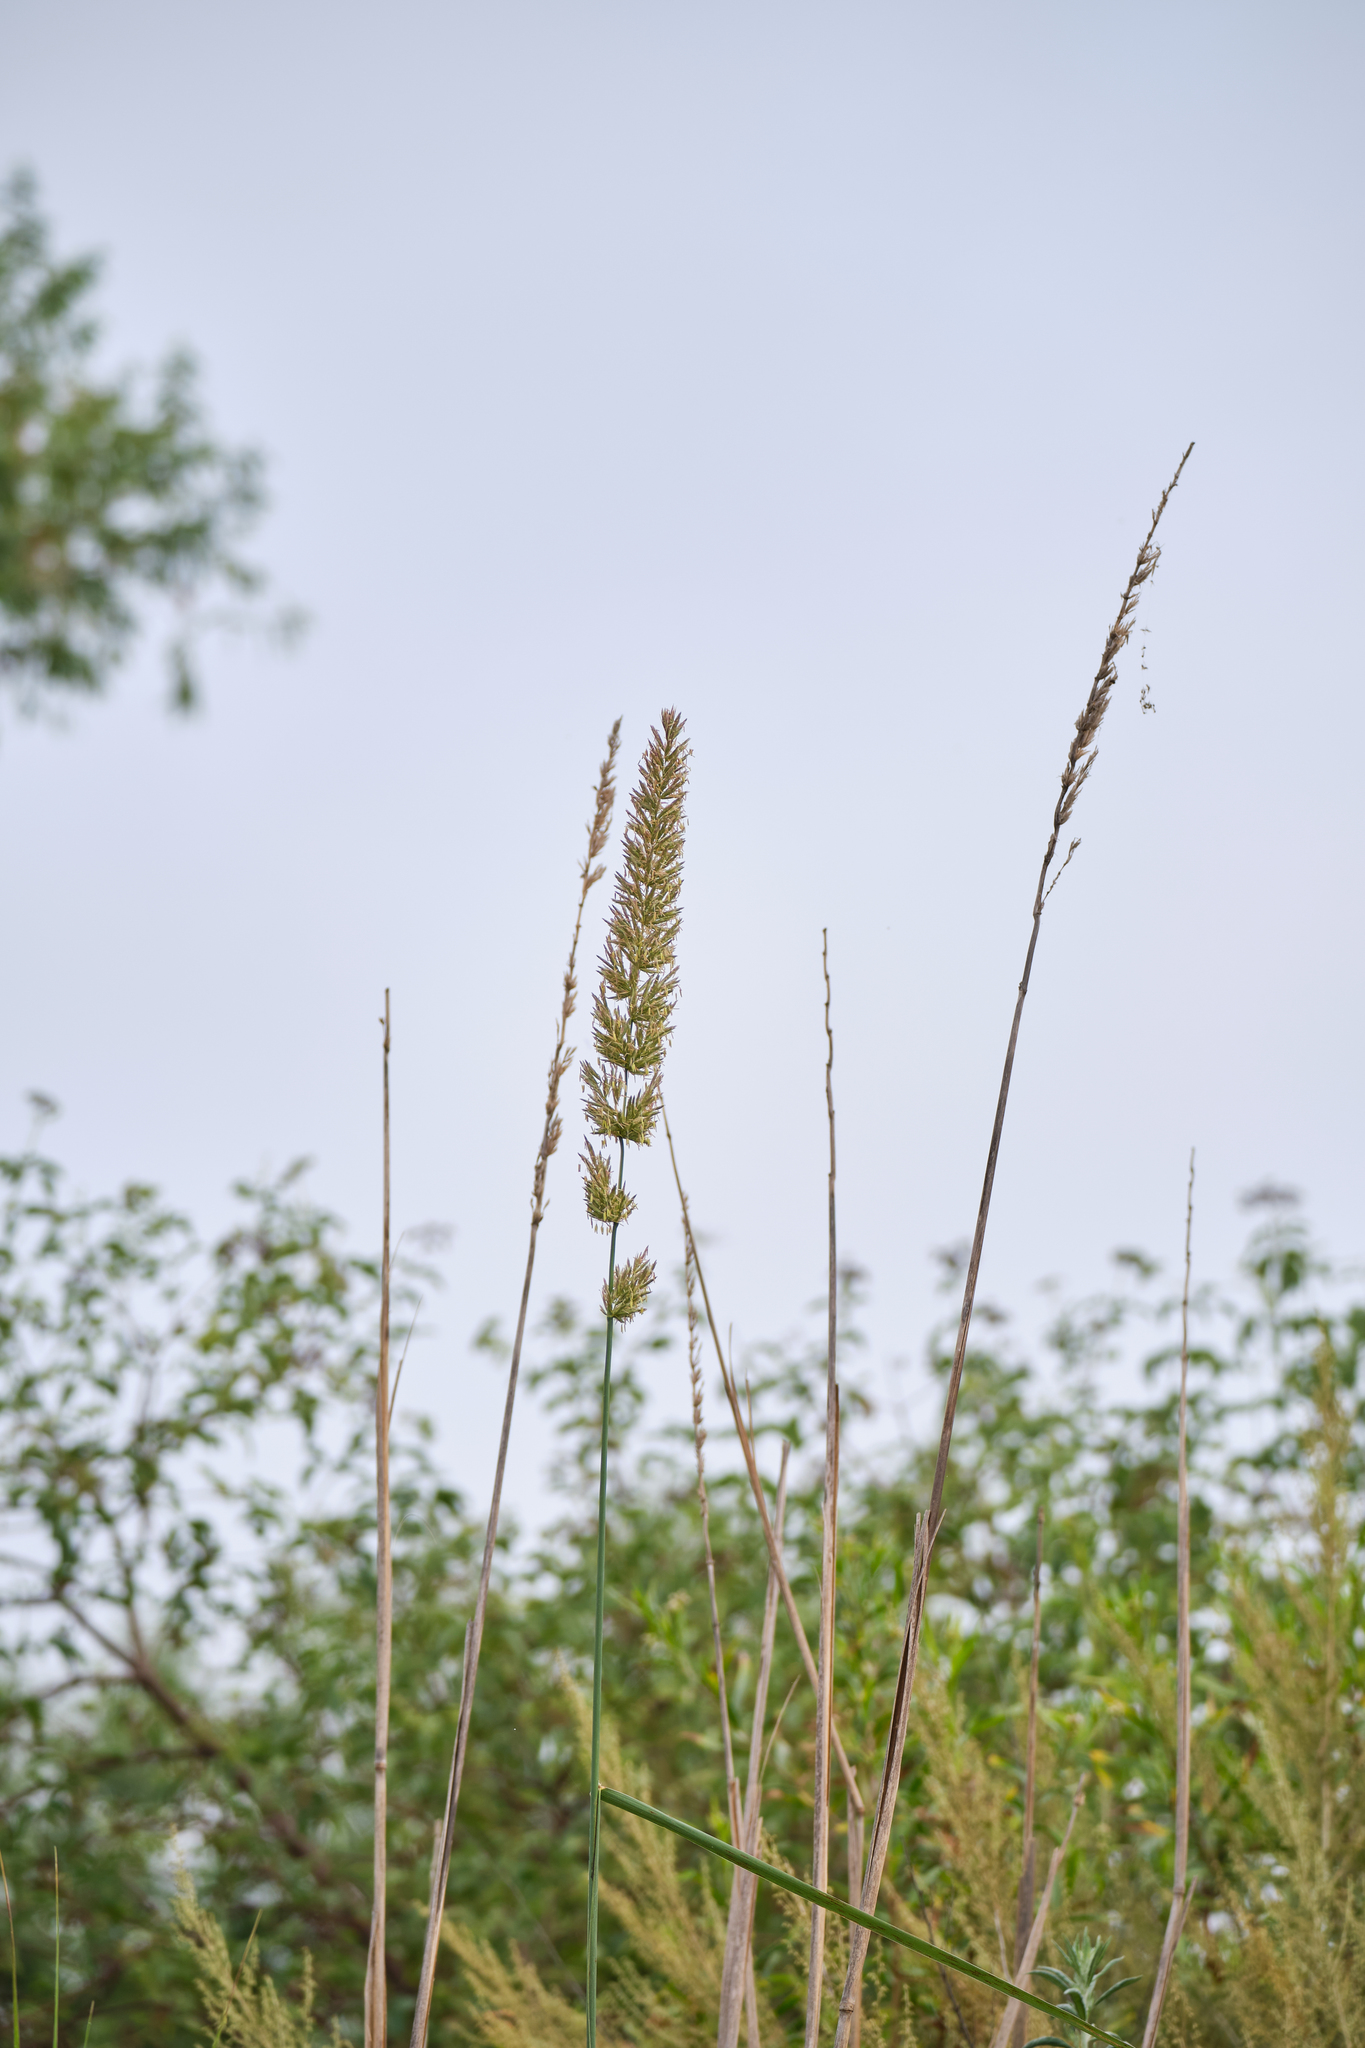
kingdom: Plantae
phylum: Tracheophyta
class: Liliopsida
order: Poales
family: Poaceae
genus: Leymus
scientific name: Leymus condensatus
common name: Giant wild rye
